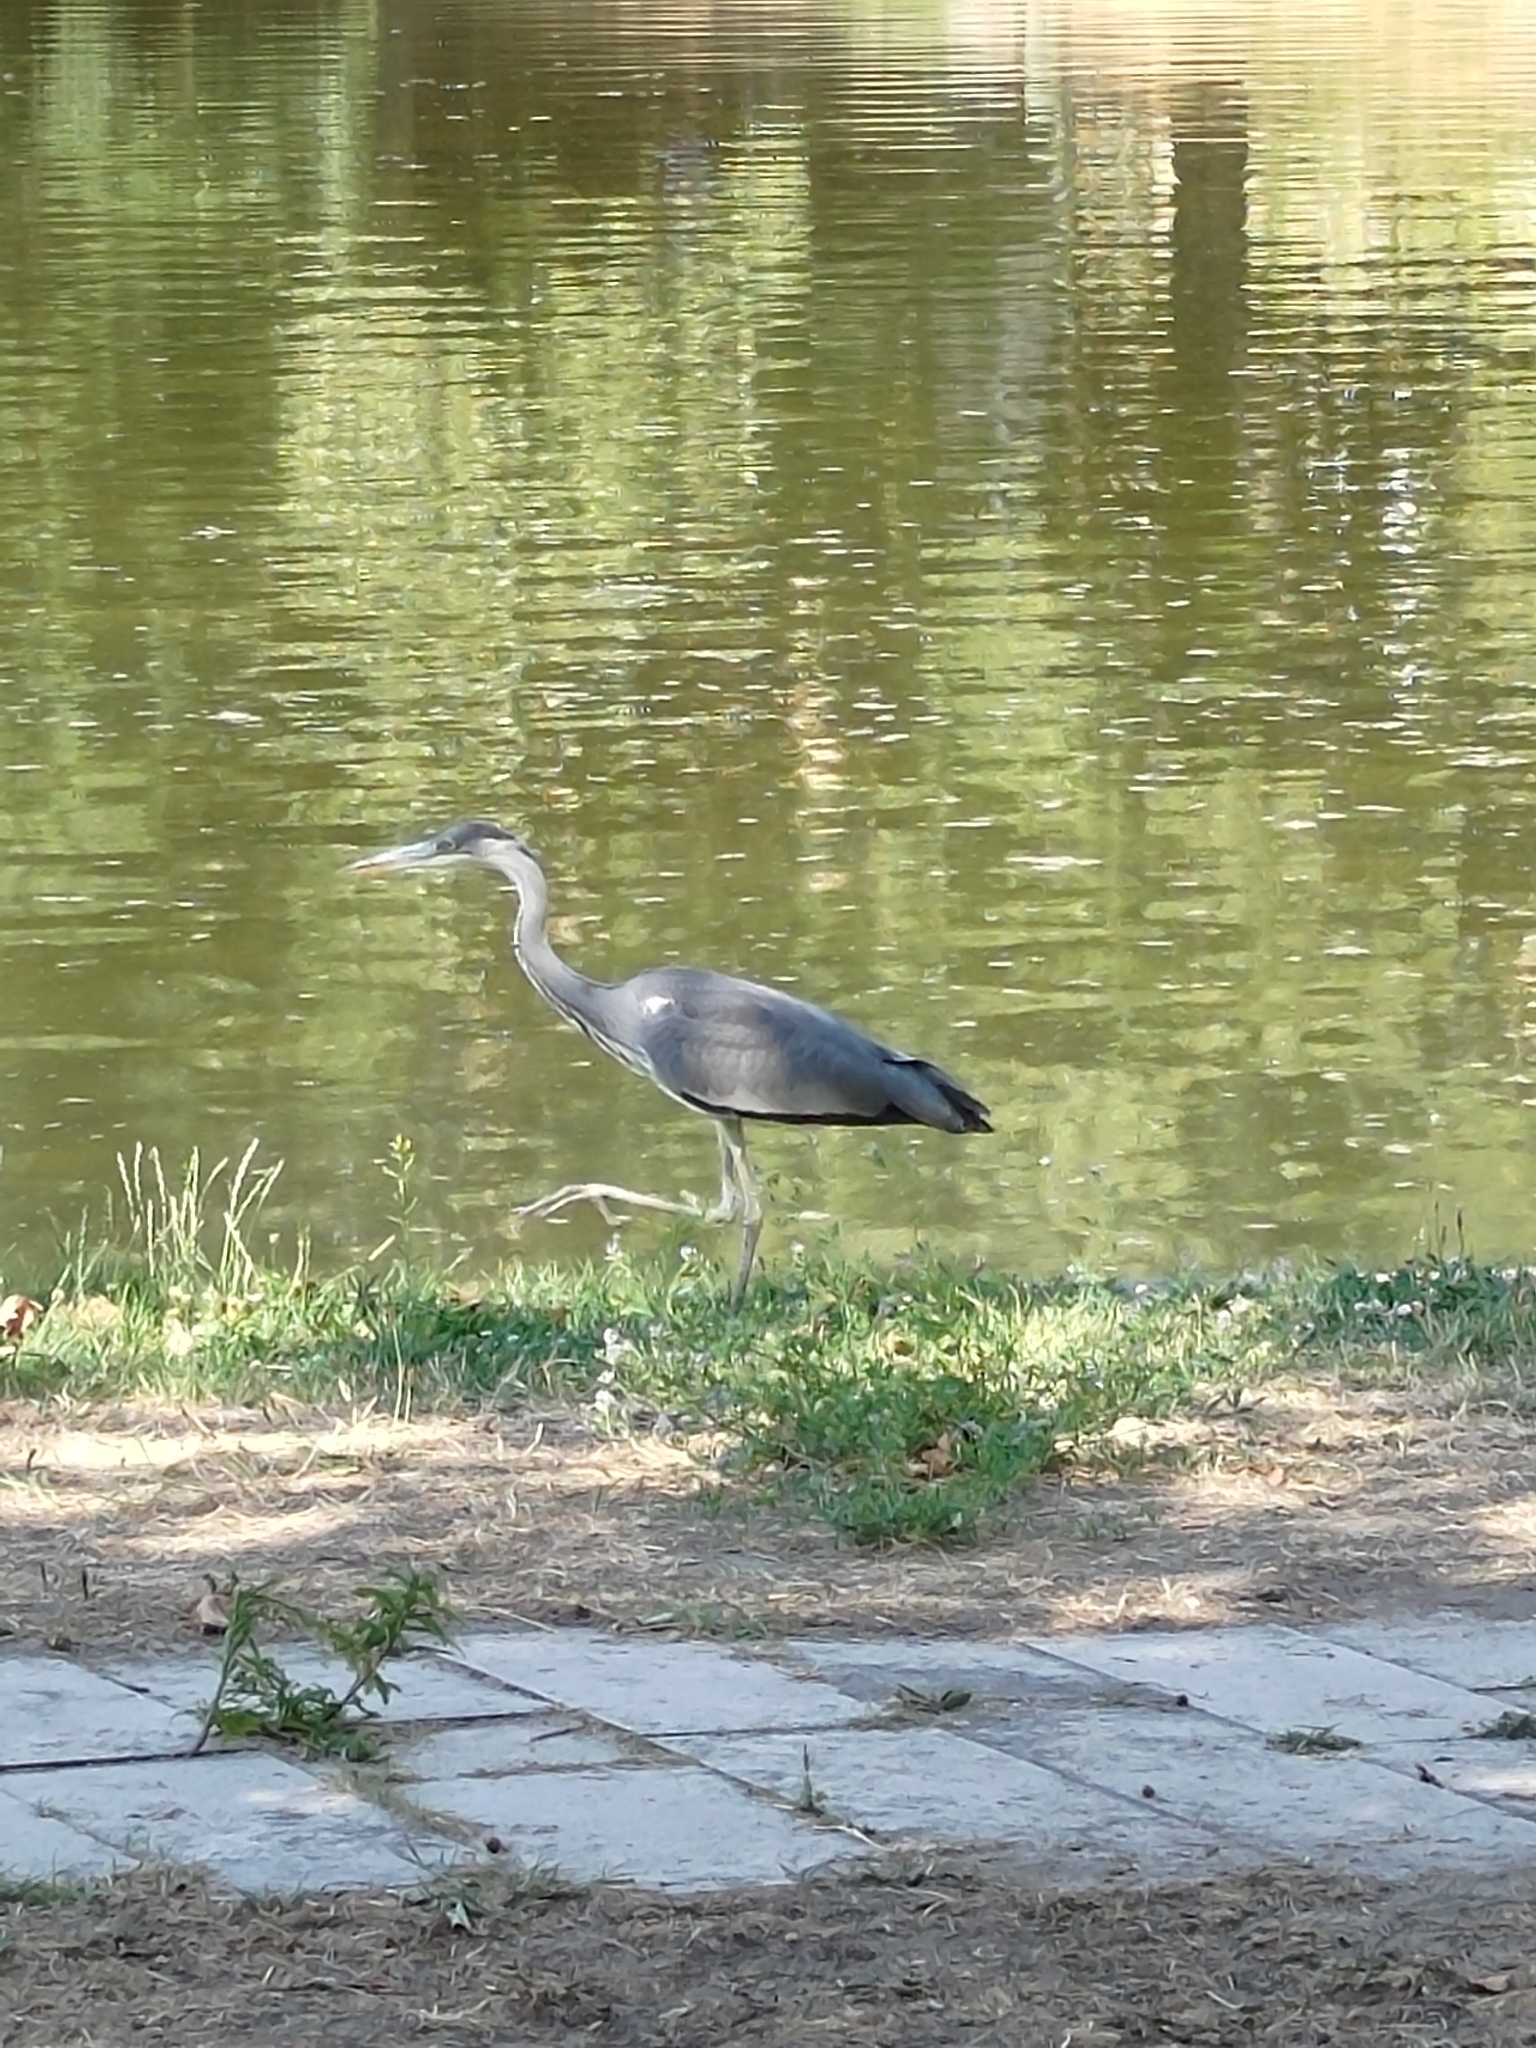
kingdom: Animalia
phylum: Chordata
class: Aves
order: Pelecaniformes
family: Ardeidae
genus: Ardea
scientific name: Ardea cinerea
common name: Grey heron
